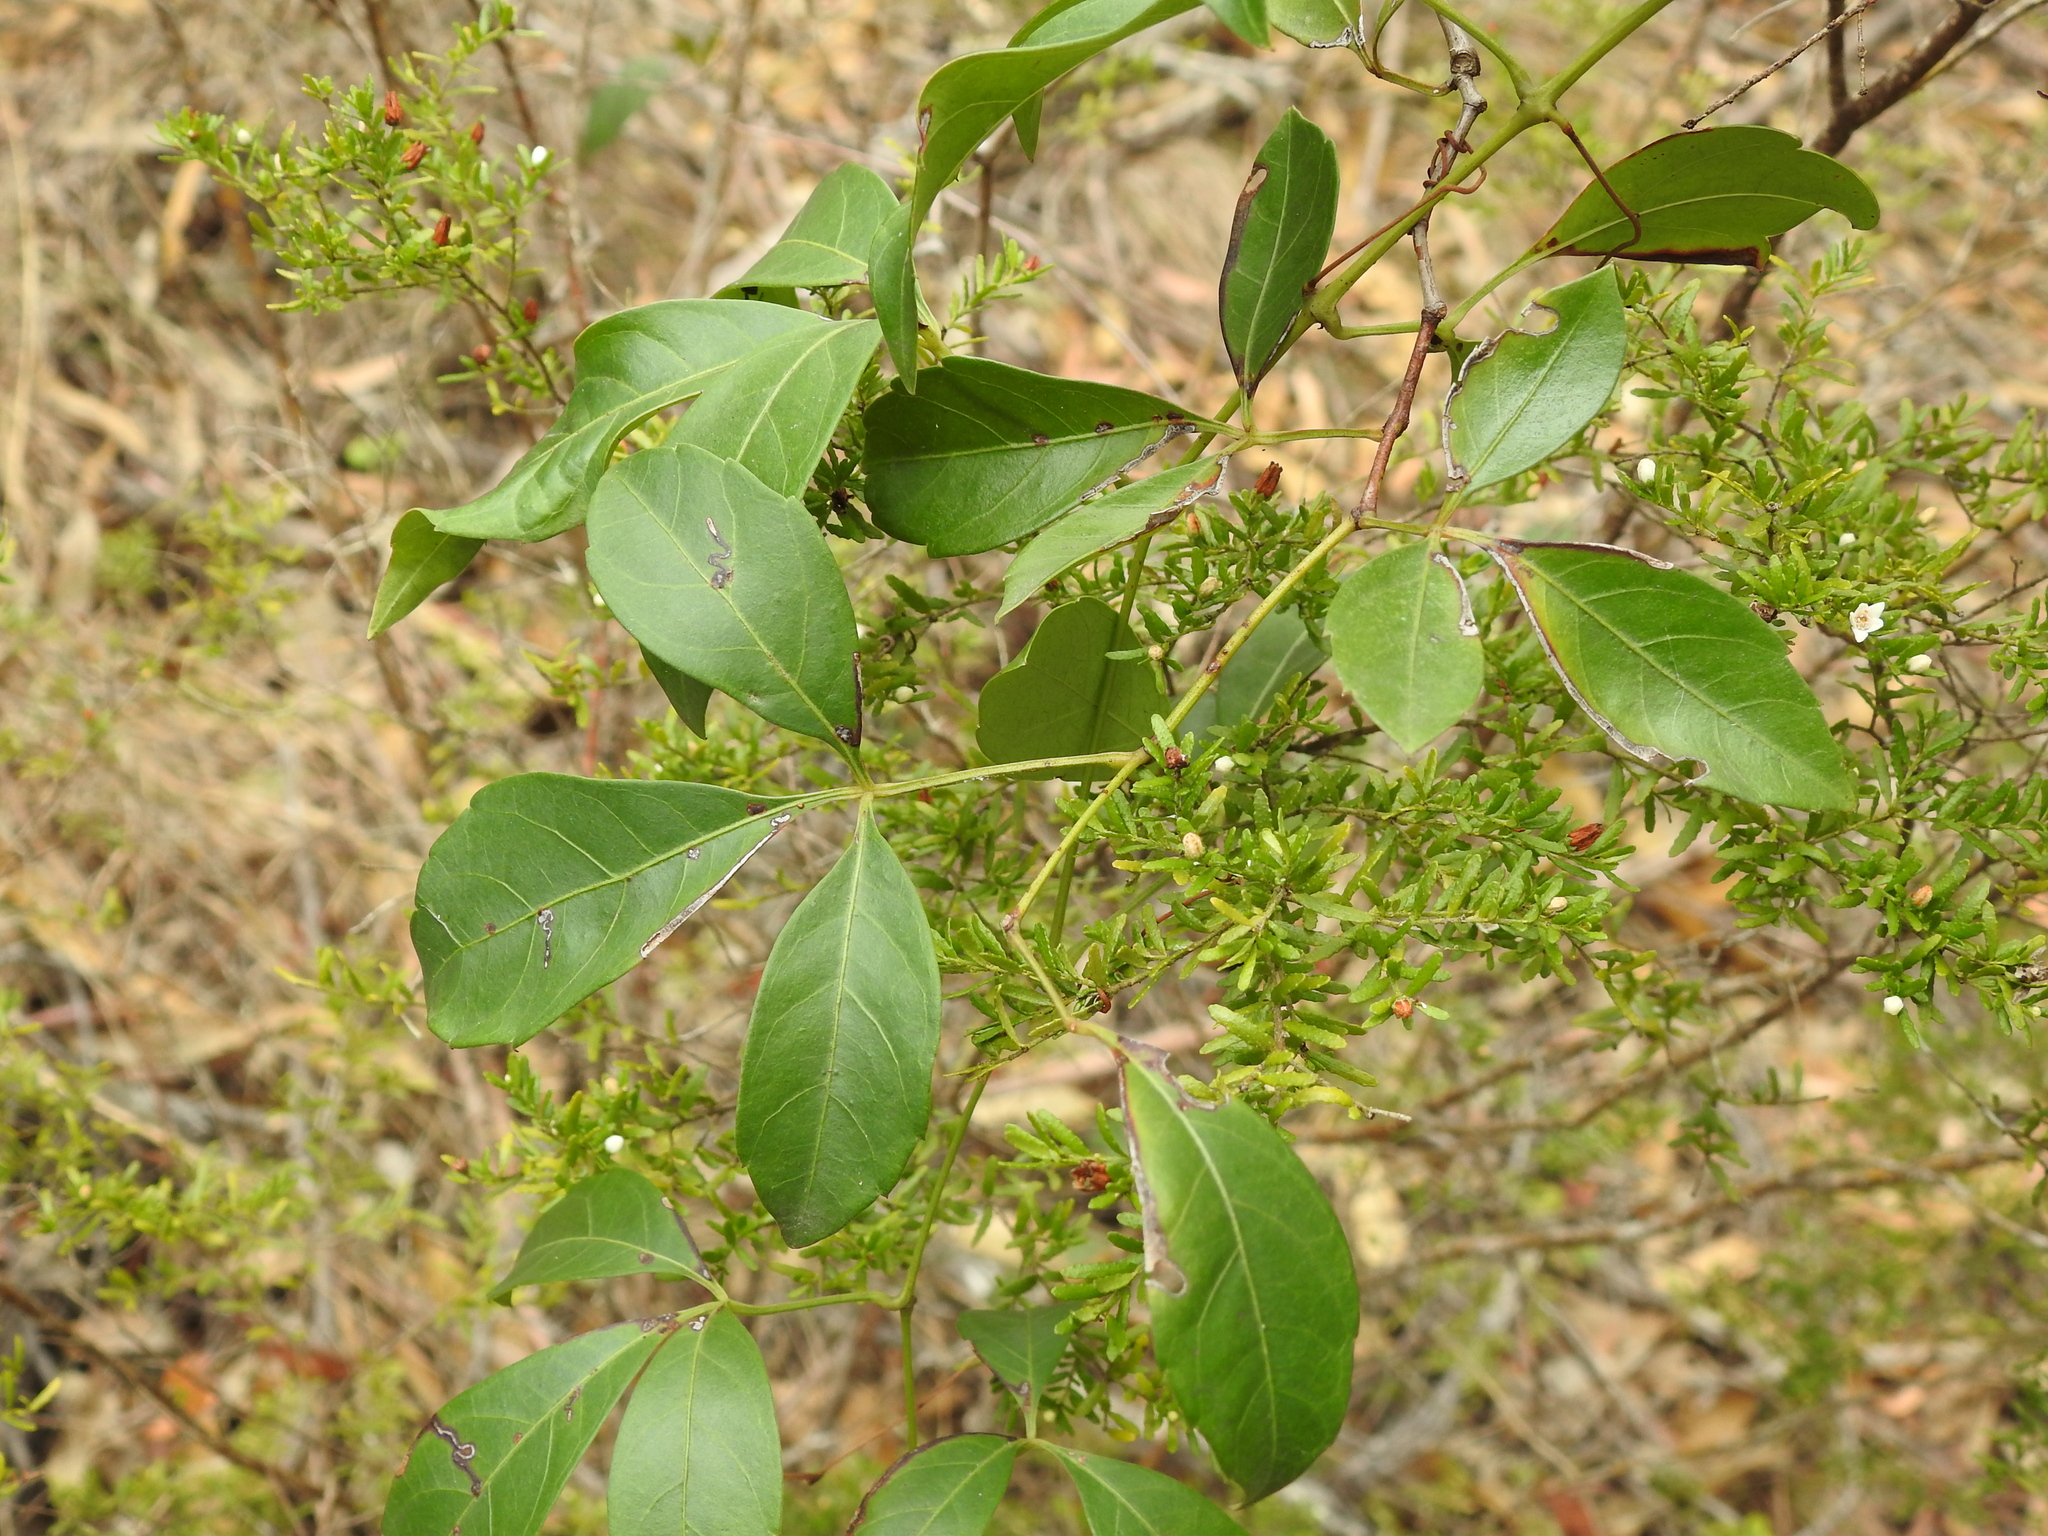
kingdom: Plantae
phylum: Tracheophyta
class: Magnoliopsida
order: Vitales
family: Vitaceae
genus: Clematicissus
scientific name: Clematicissus opaca
